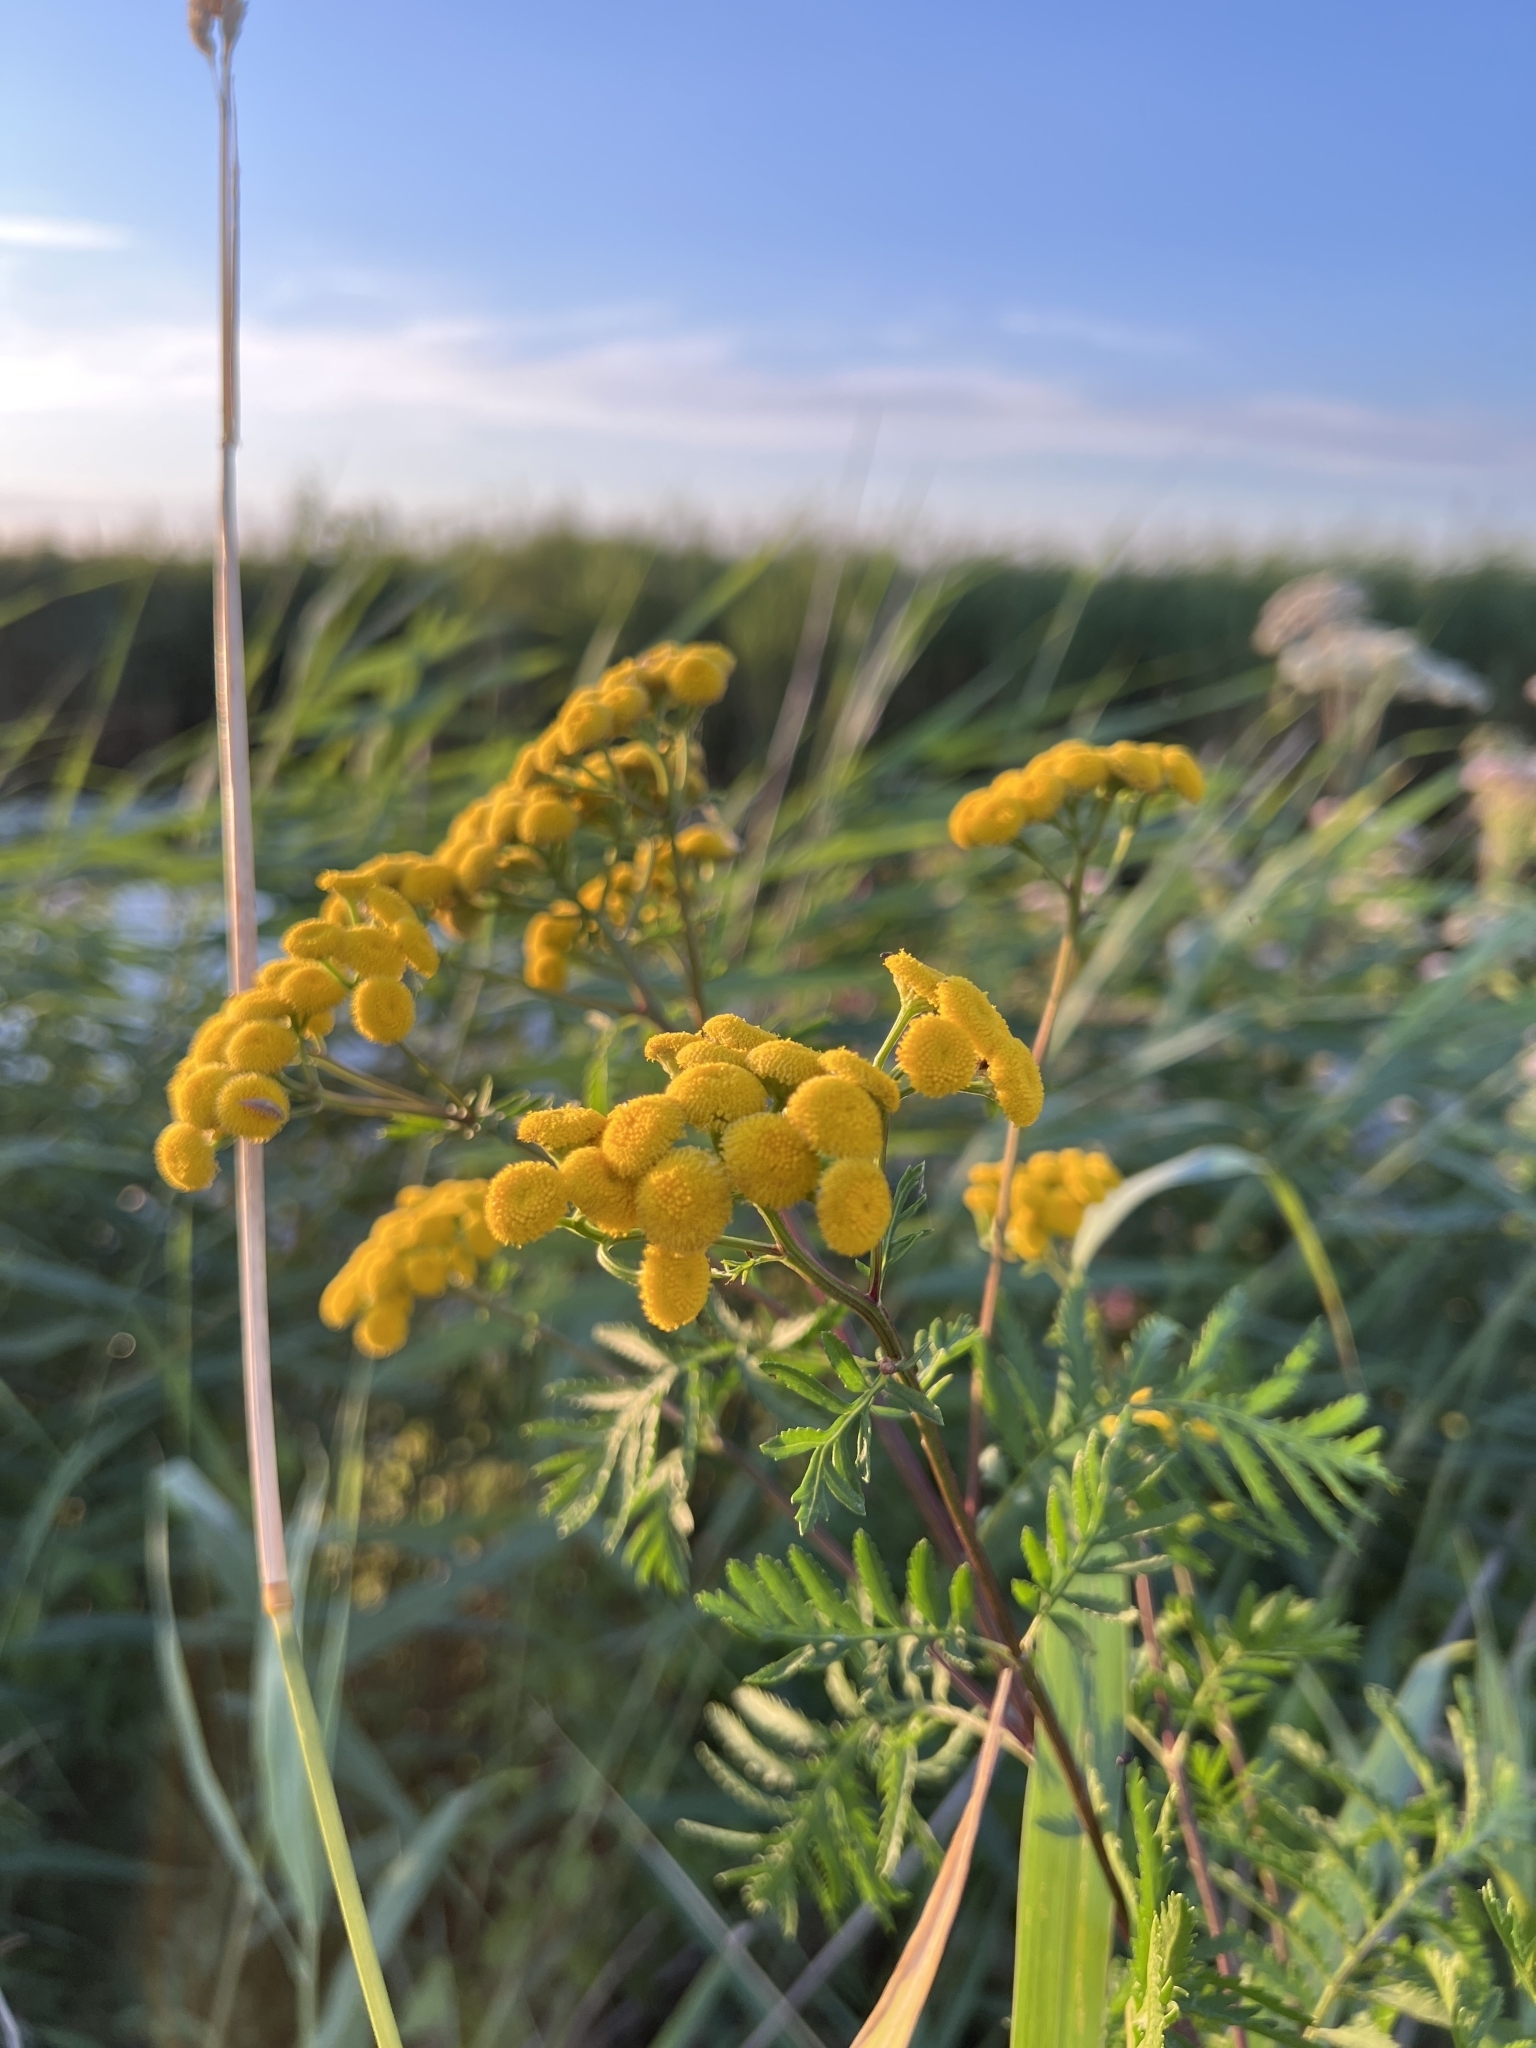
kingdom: Plantae
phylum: Tracheophyta
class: Magnoliopsida
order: Asterales
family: Asteraceae
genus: Tanacetum
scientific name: Tanacetum vulgare
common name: Common tansy
